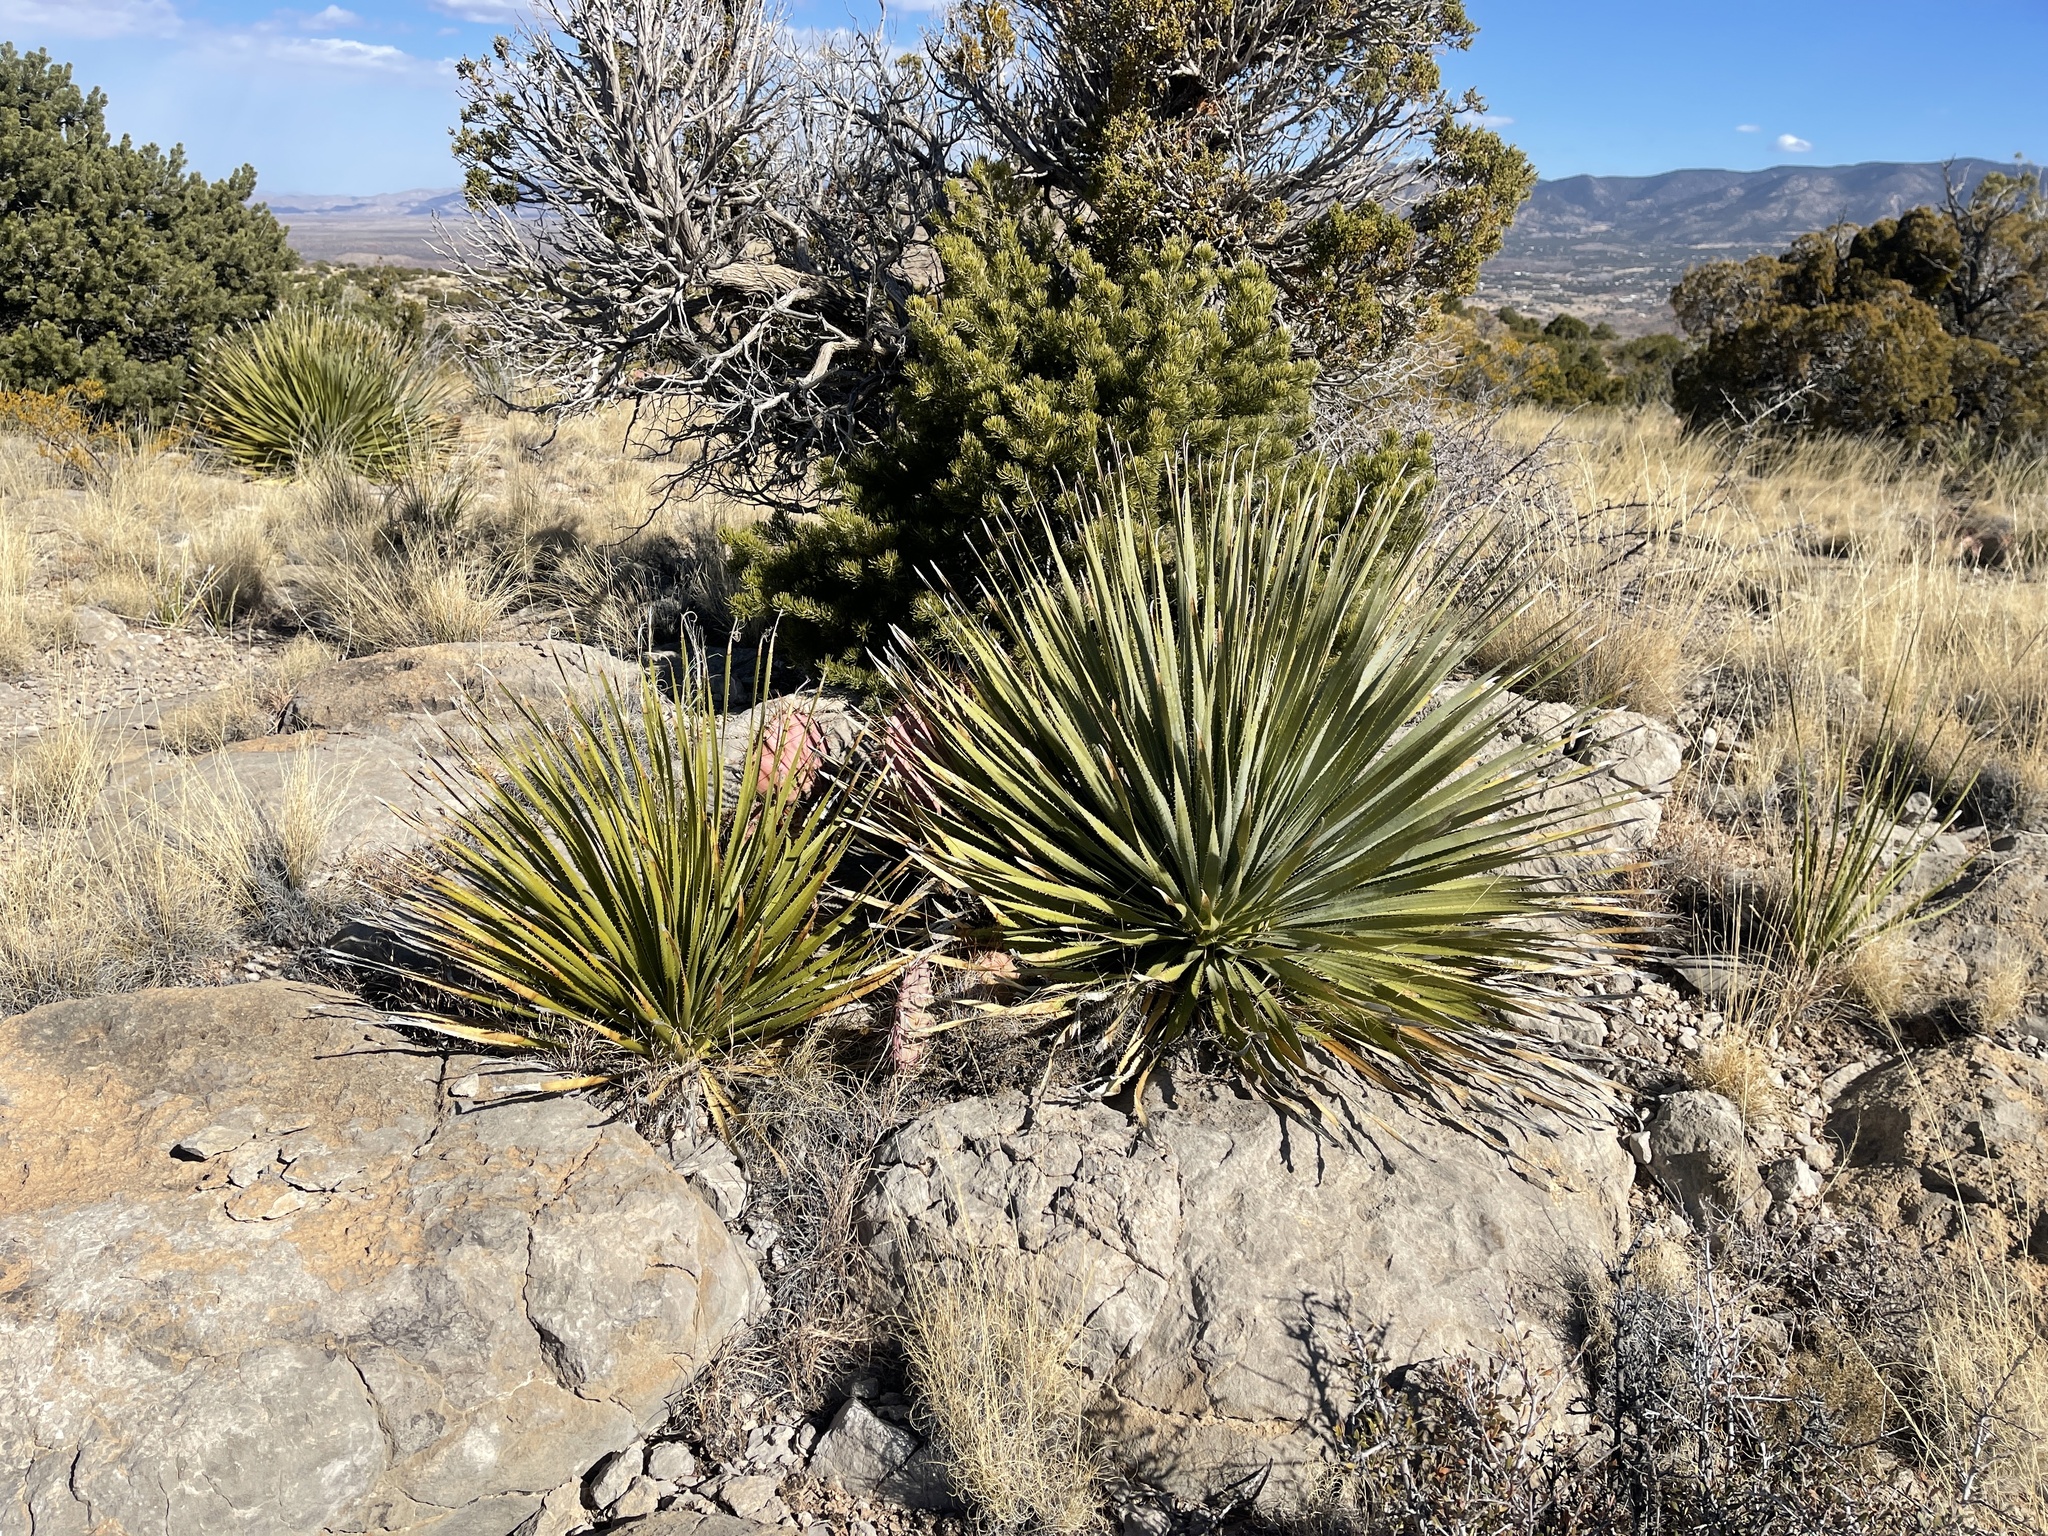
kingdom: Plantae
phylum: Tracheophyta
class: Liliopsida
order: Asparagales
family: Asparagaceae
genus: Dasylirion
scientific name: Dasylirion wheeleri
